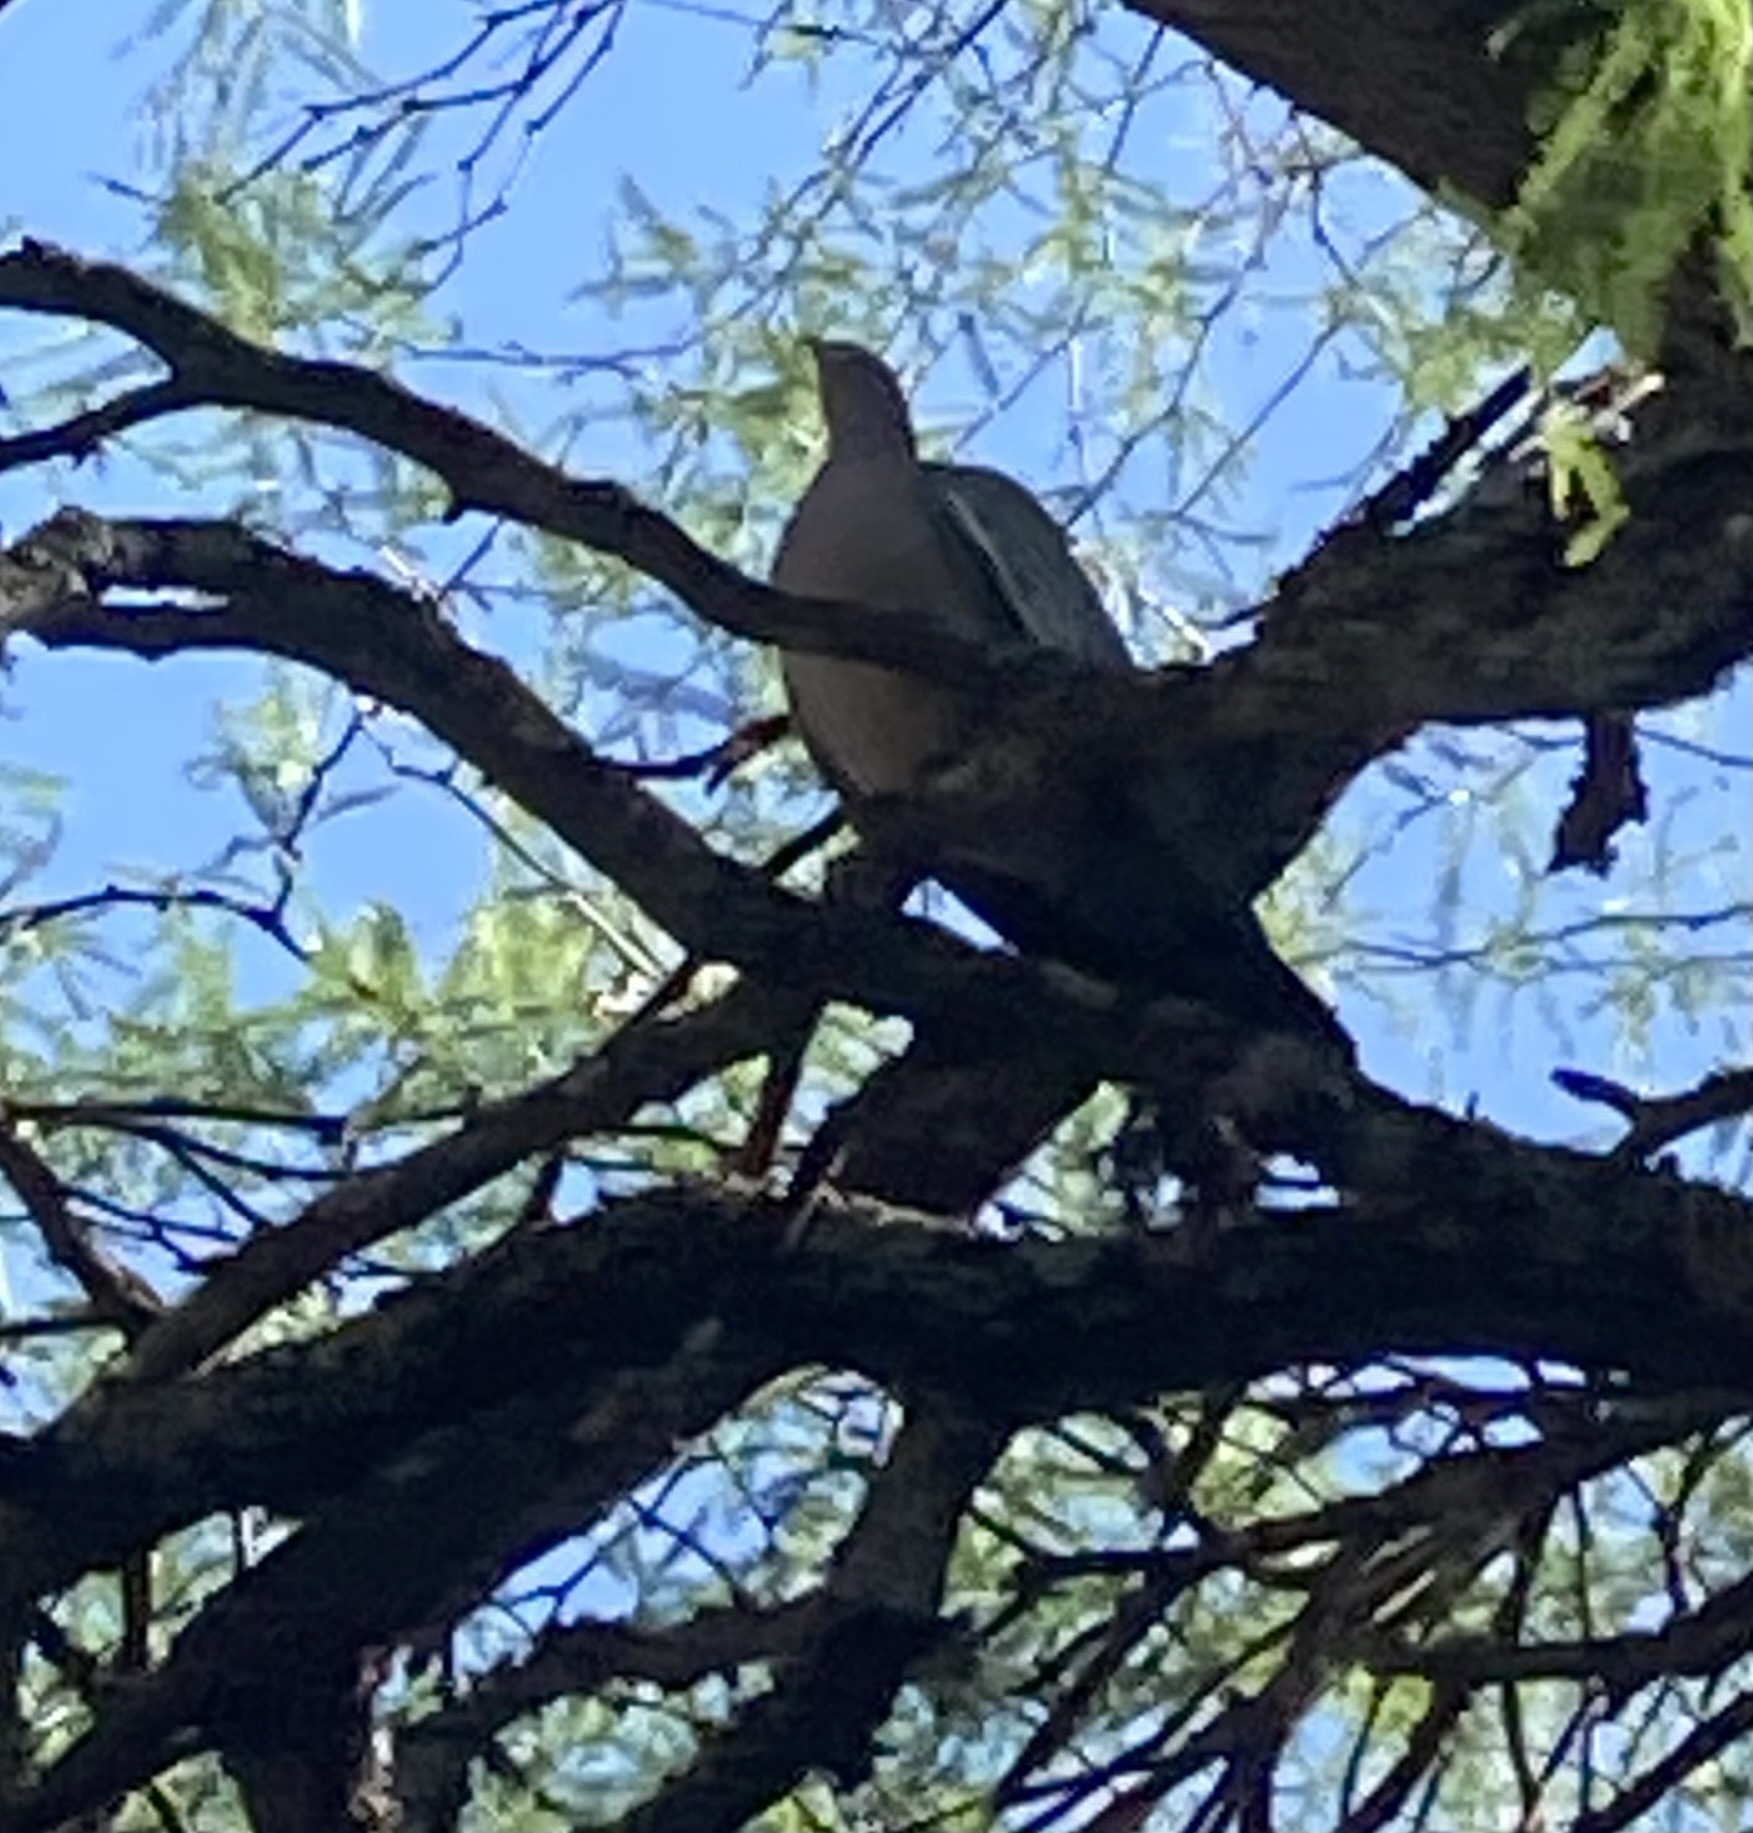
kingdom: Animalia
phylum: Chordata
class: Aves
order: Columbiformes
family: Columbidae
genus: Patagioenas
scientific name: Patagioenas picazuro
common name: Picazuro pigeon
